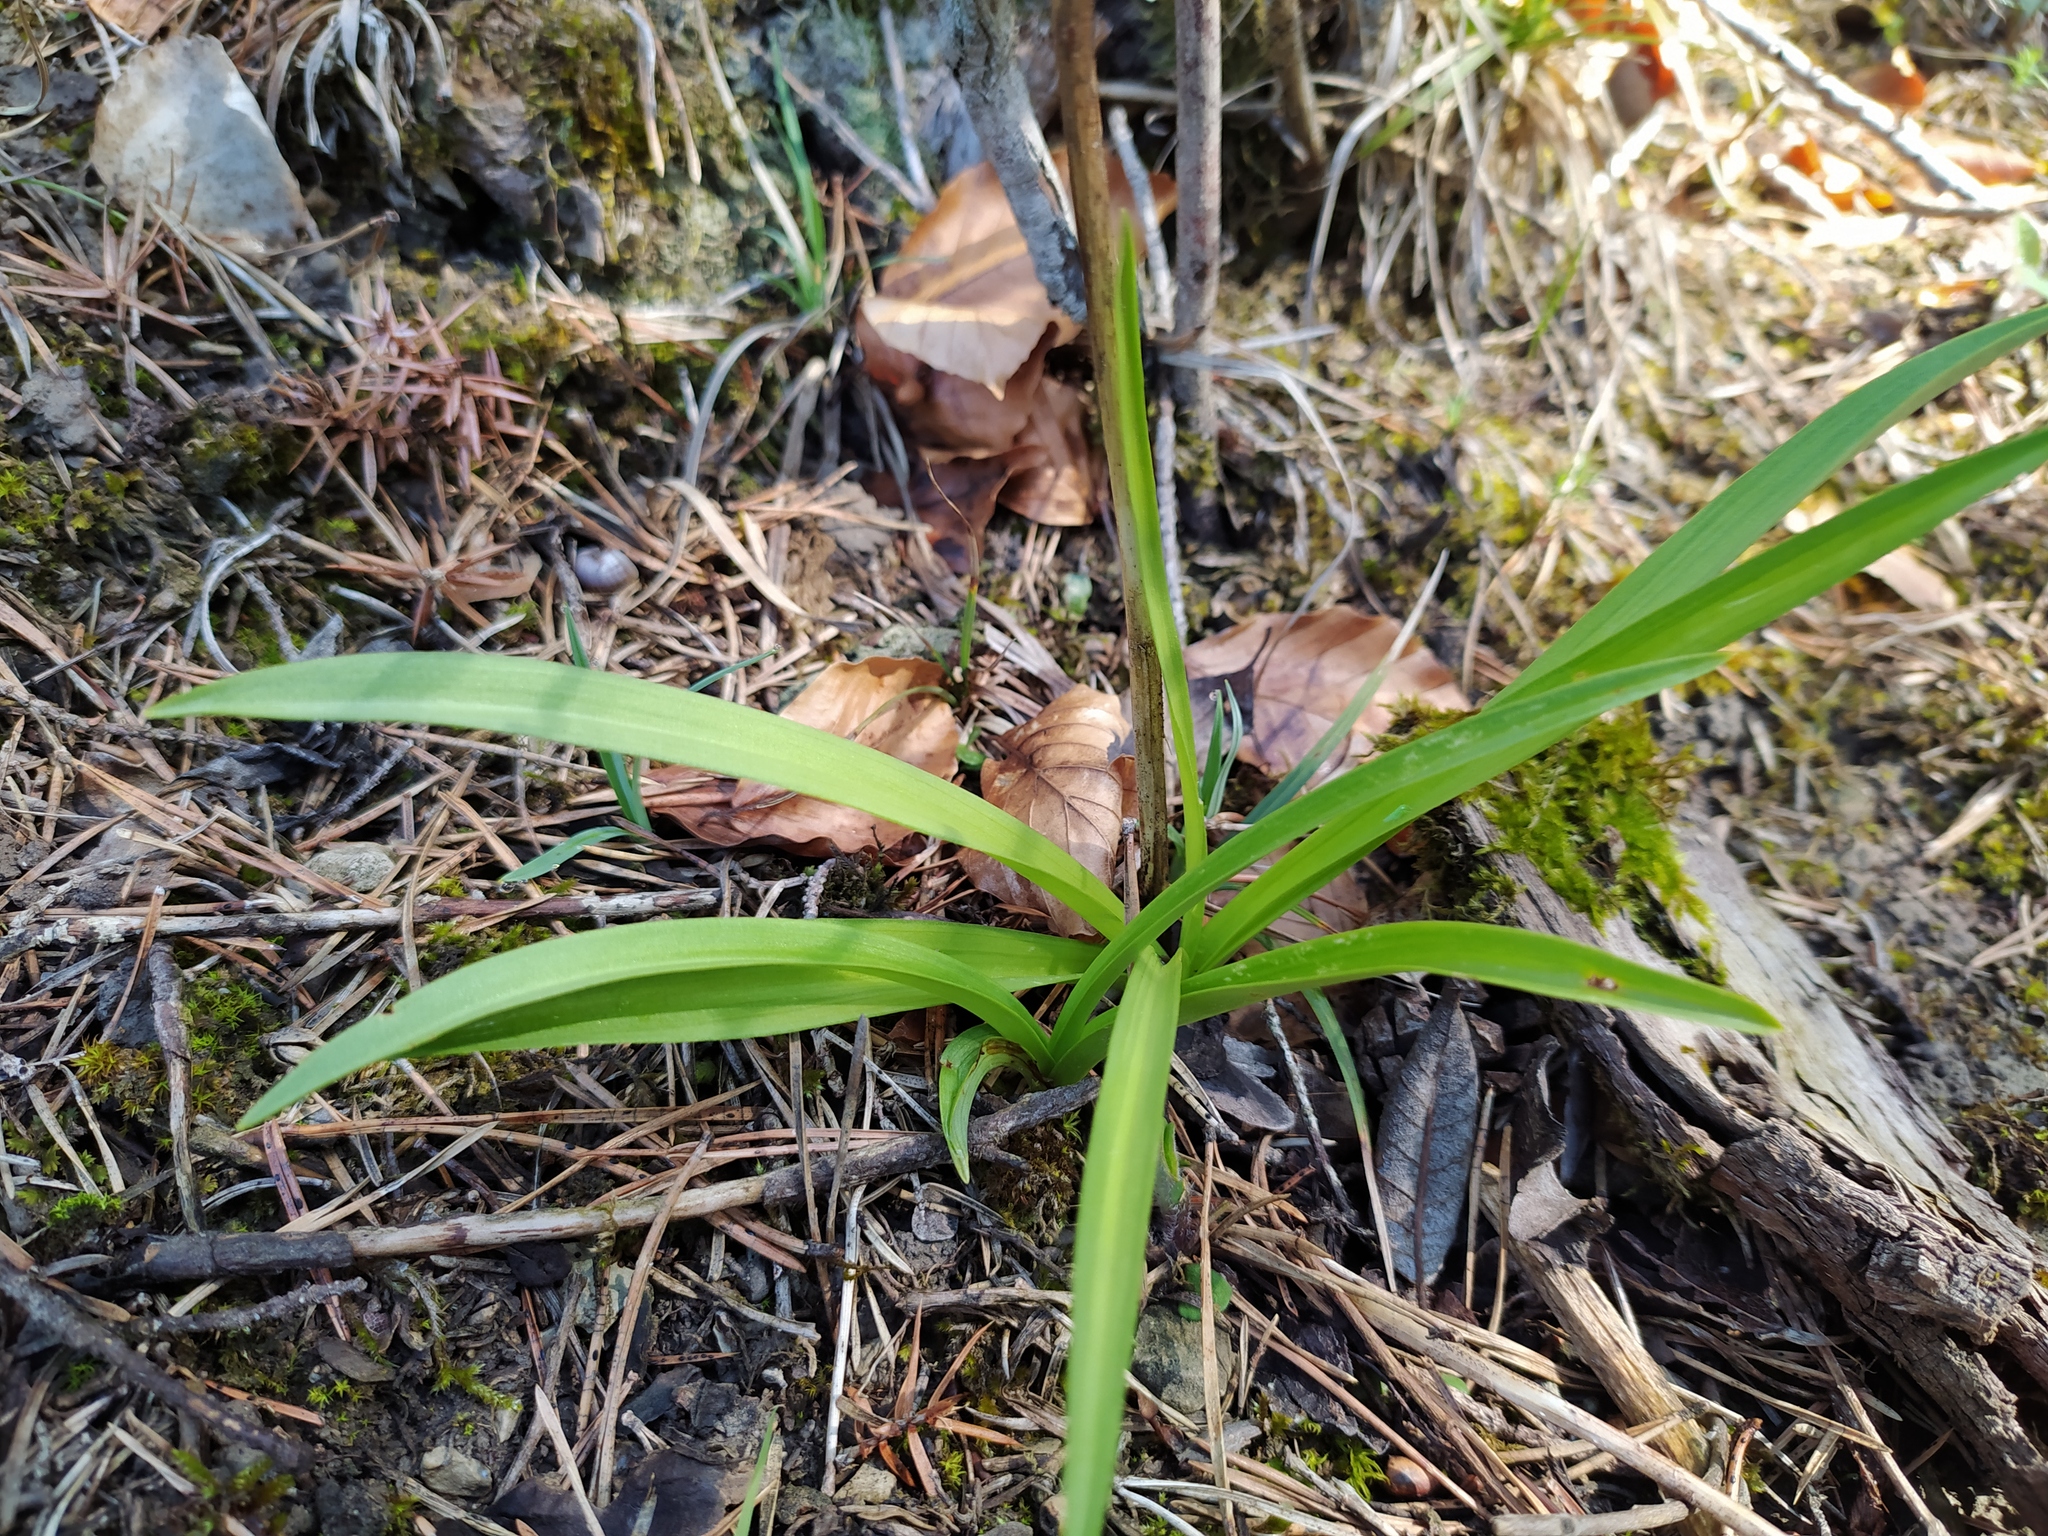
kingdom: Plantae
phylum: Tracheophyta
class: Liliopsida
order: Asparagales
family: Orchidaceae
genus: Gymnadenia
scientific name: Gymnadenia conopsea
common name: Fragrant orchid
